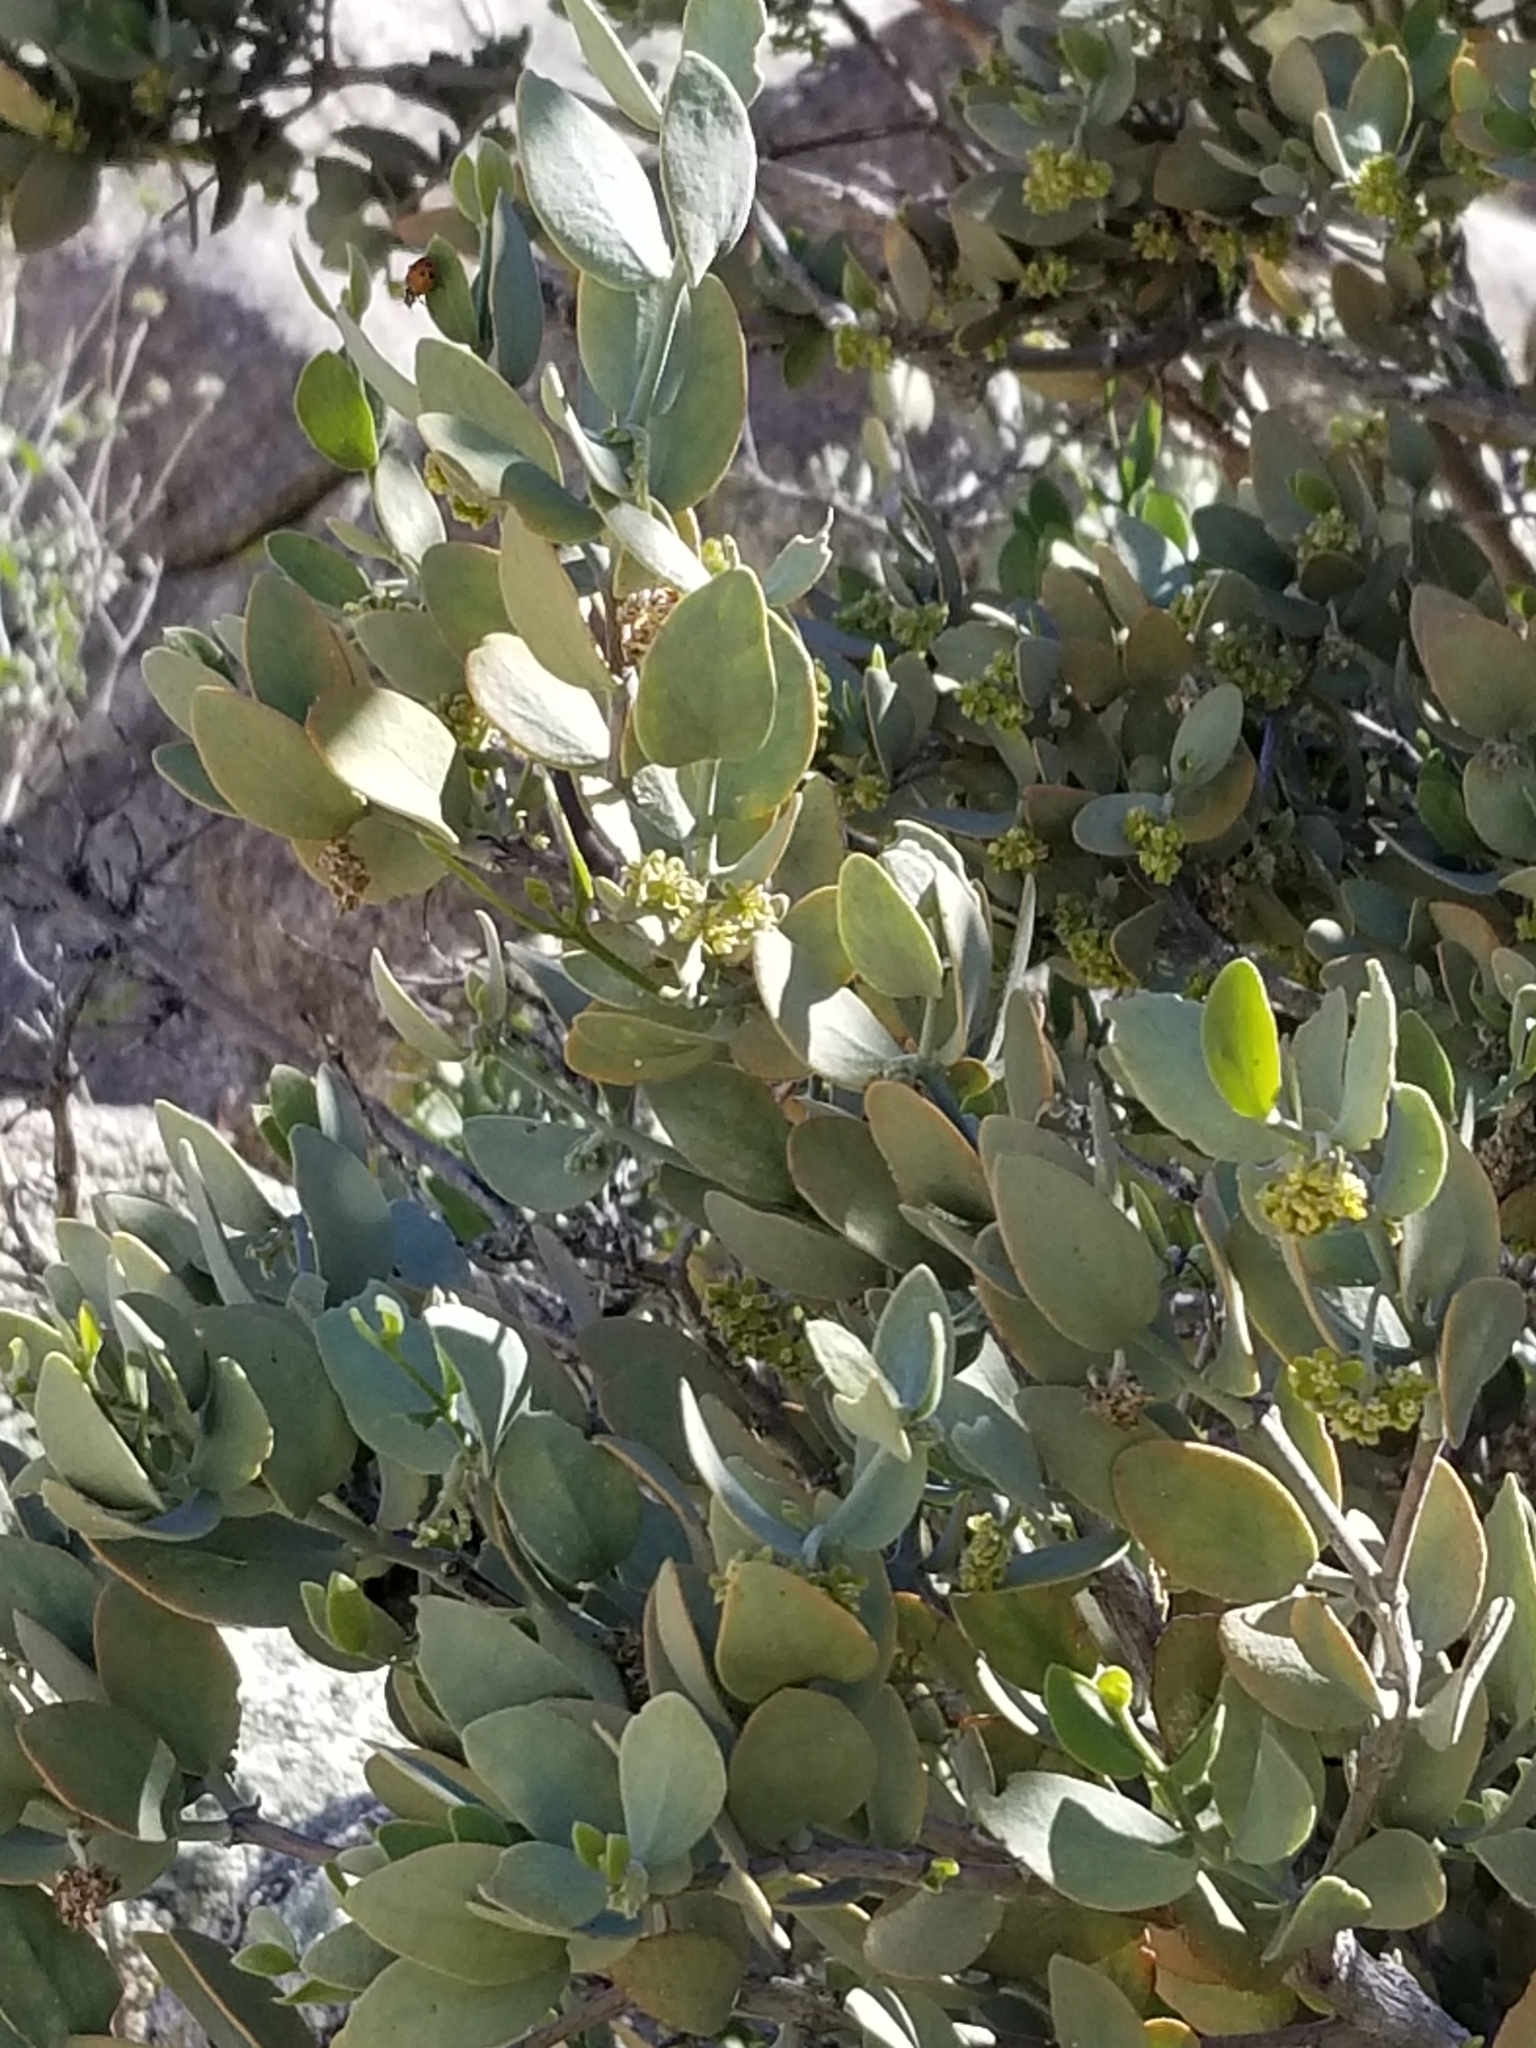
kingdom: Plantae
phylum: Tracheophyta
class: Magnoliopsida
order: Caryophyllales
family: Simmondsiaceae
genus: Simmondsia
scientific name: Simmondsia chinensis
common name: Jojoba
